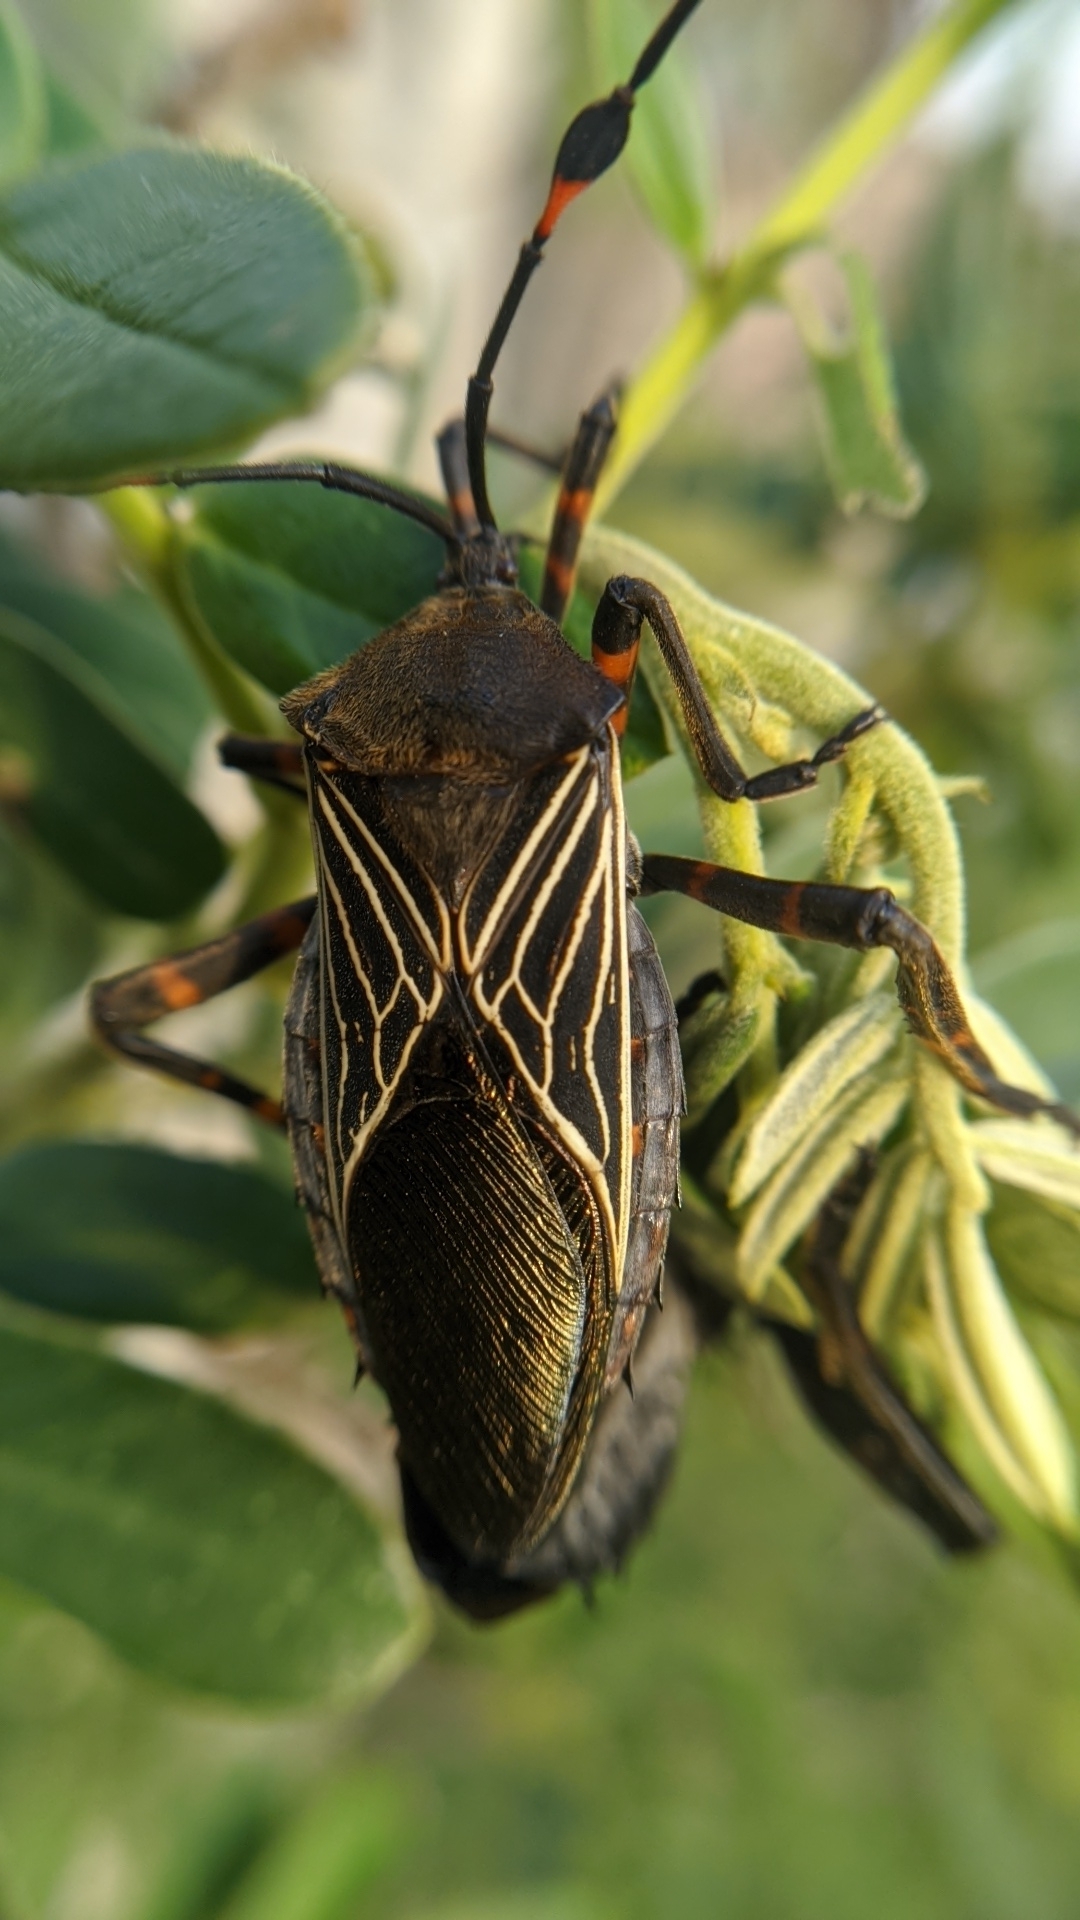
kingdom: Animalia
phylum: Arthropoda
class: Insecta
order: Hemiptera
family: Coreidae
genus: Thasus
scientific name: Thasus
